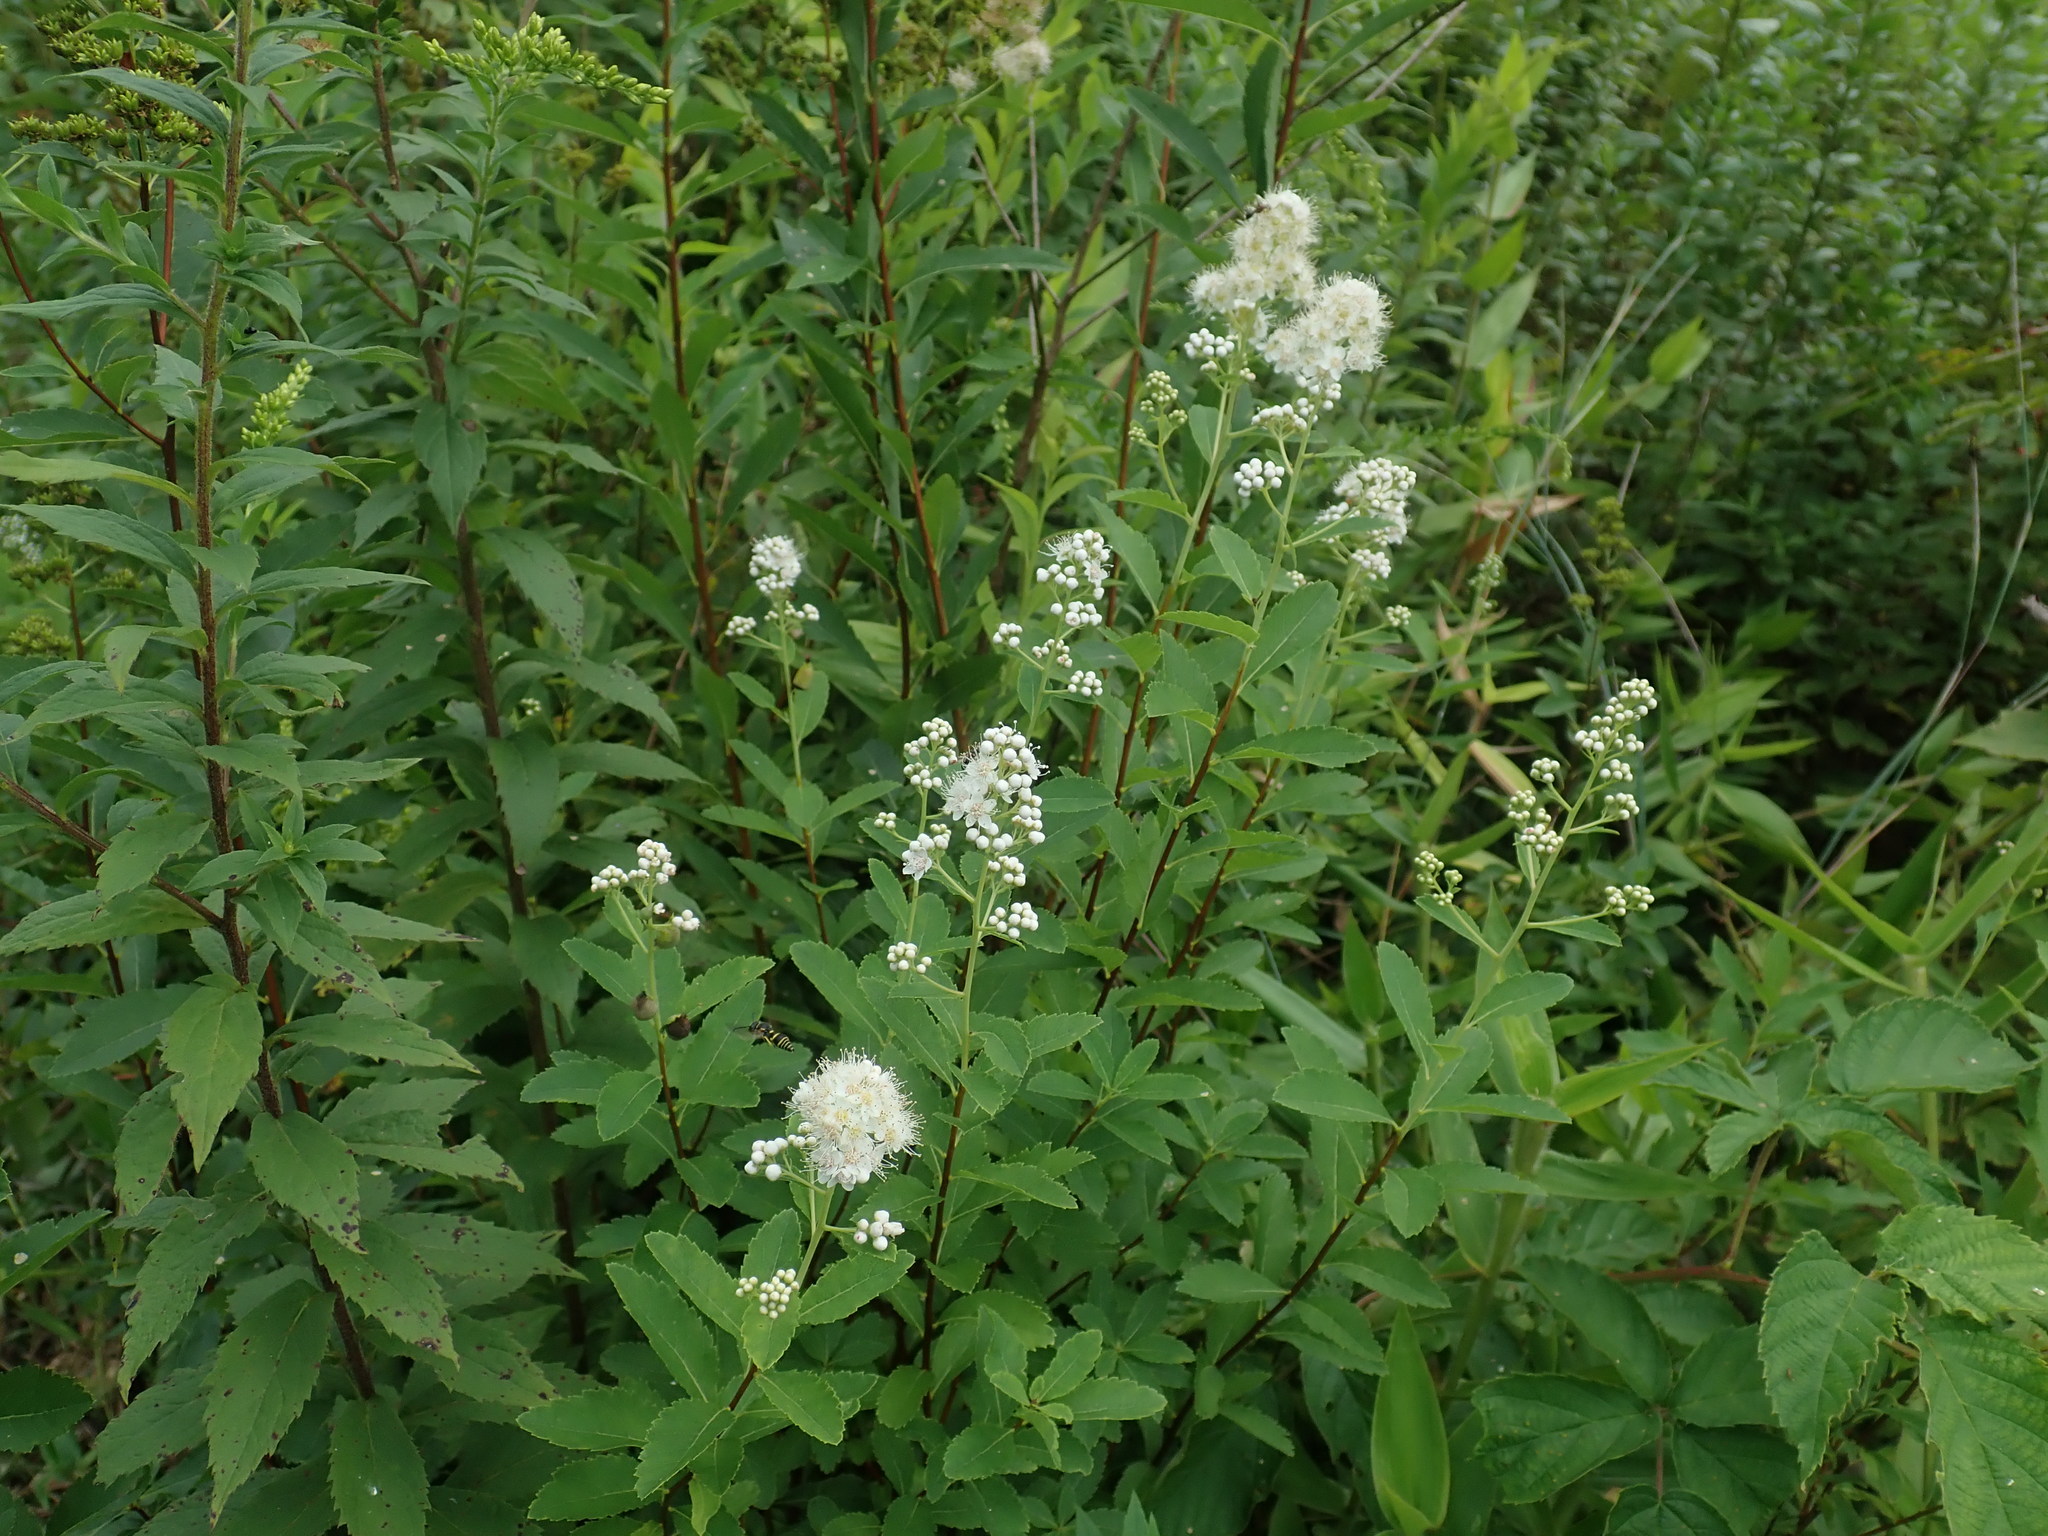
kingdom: Plantae
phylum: Tracheophyta
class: Magnoliopsida
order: Rosales
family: Rosaceae
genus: Spiraea
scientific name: Spiraea alba
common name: Pale bridewort
